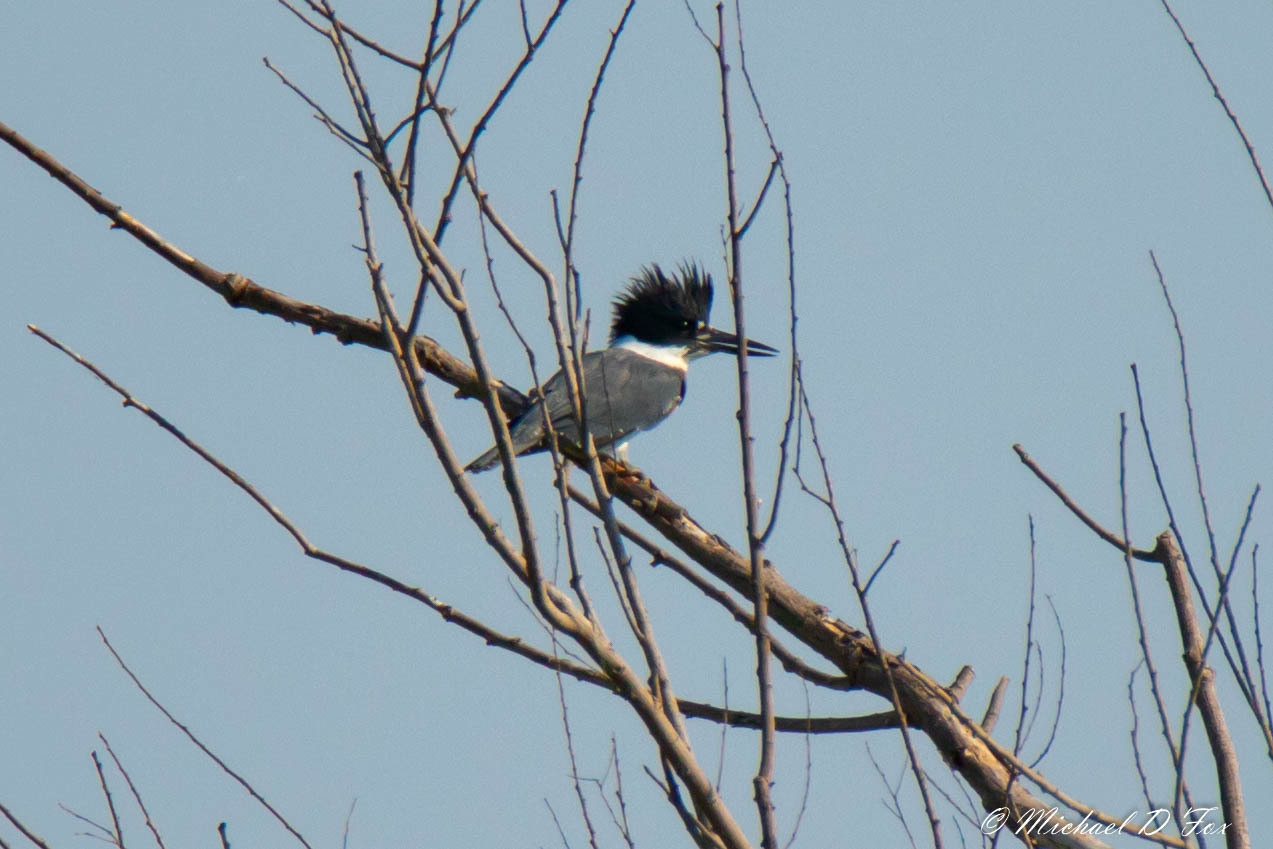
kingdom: Animalia
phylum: Chordata
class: Aves
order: Coraciiformes
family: Alcedinidae
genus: Megaceryle
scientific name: Megaceryle alcyon
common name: Belted kingfisher
